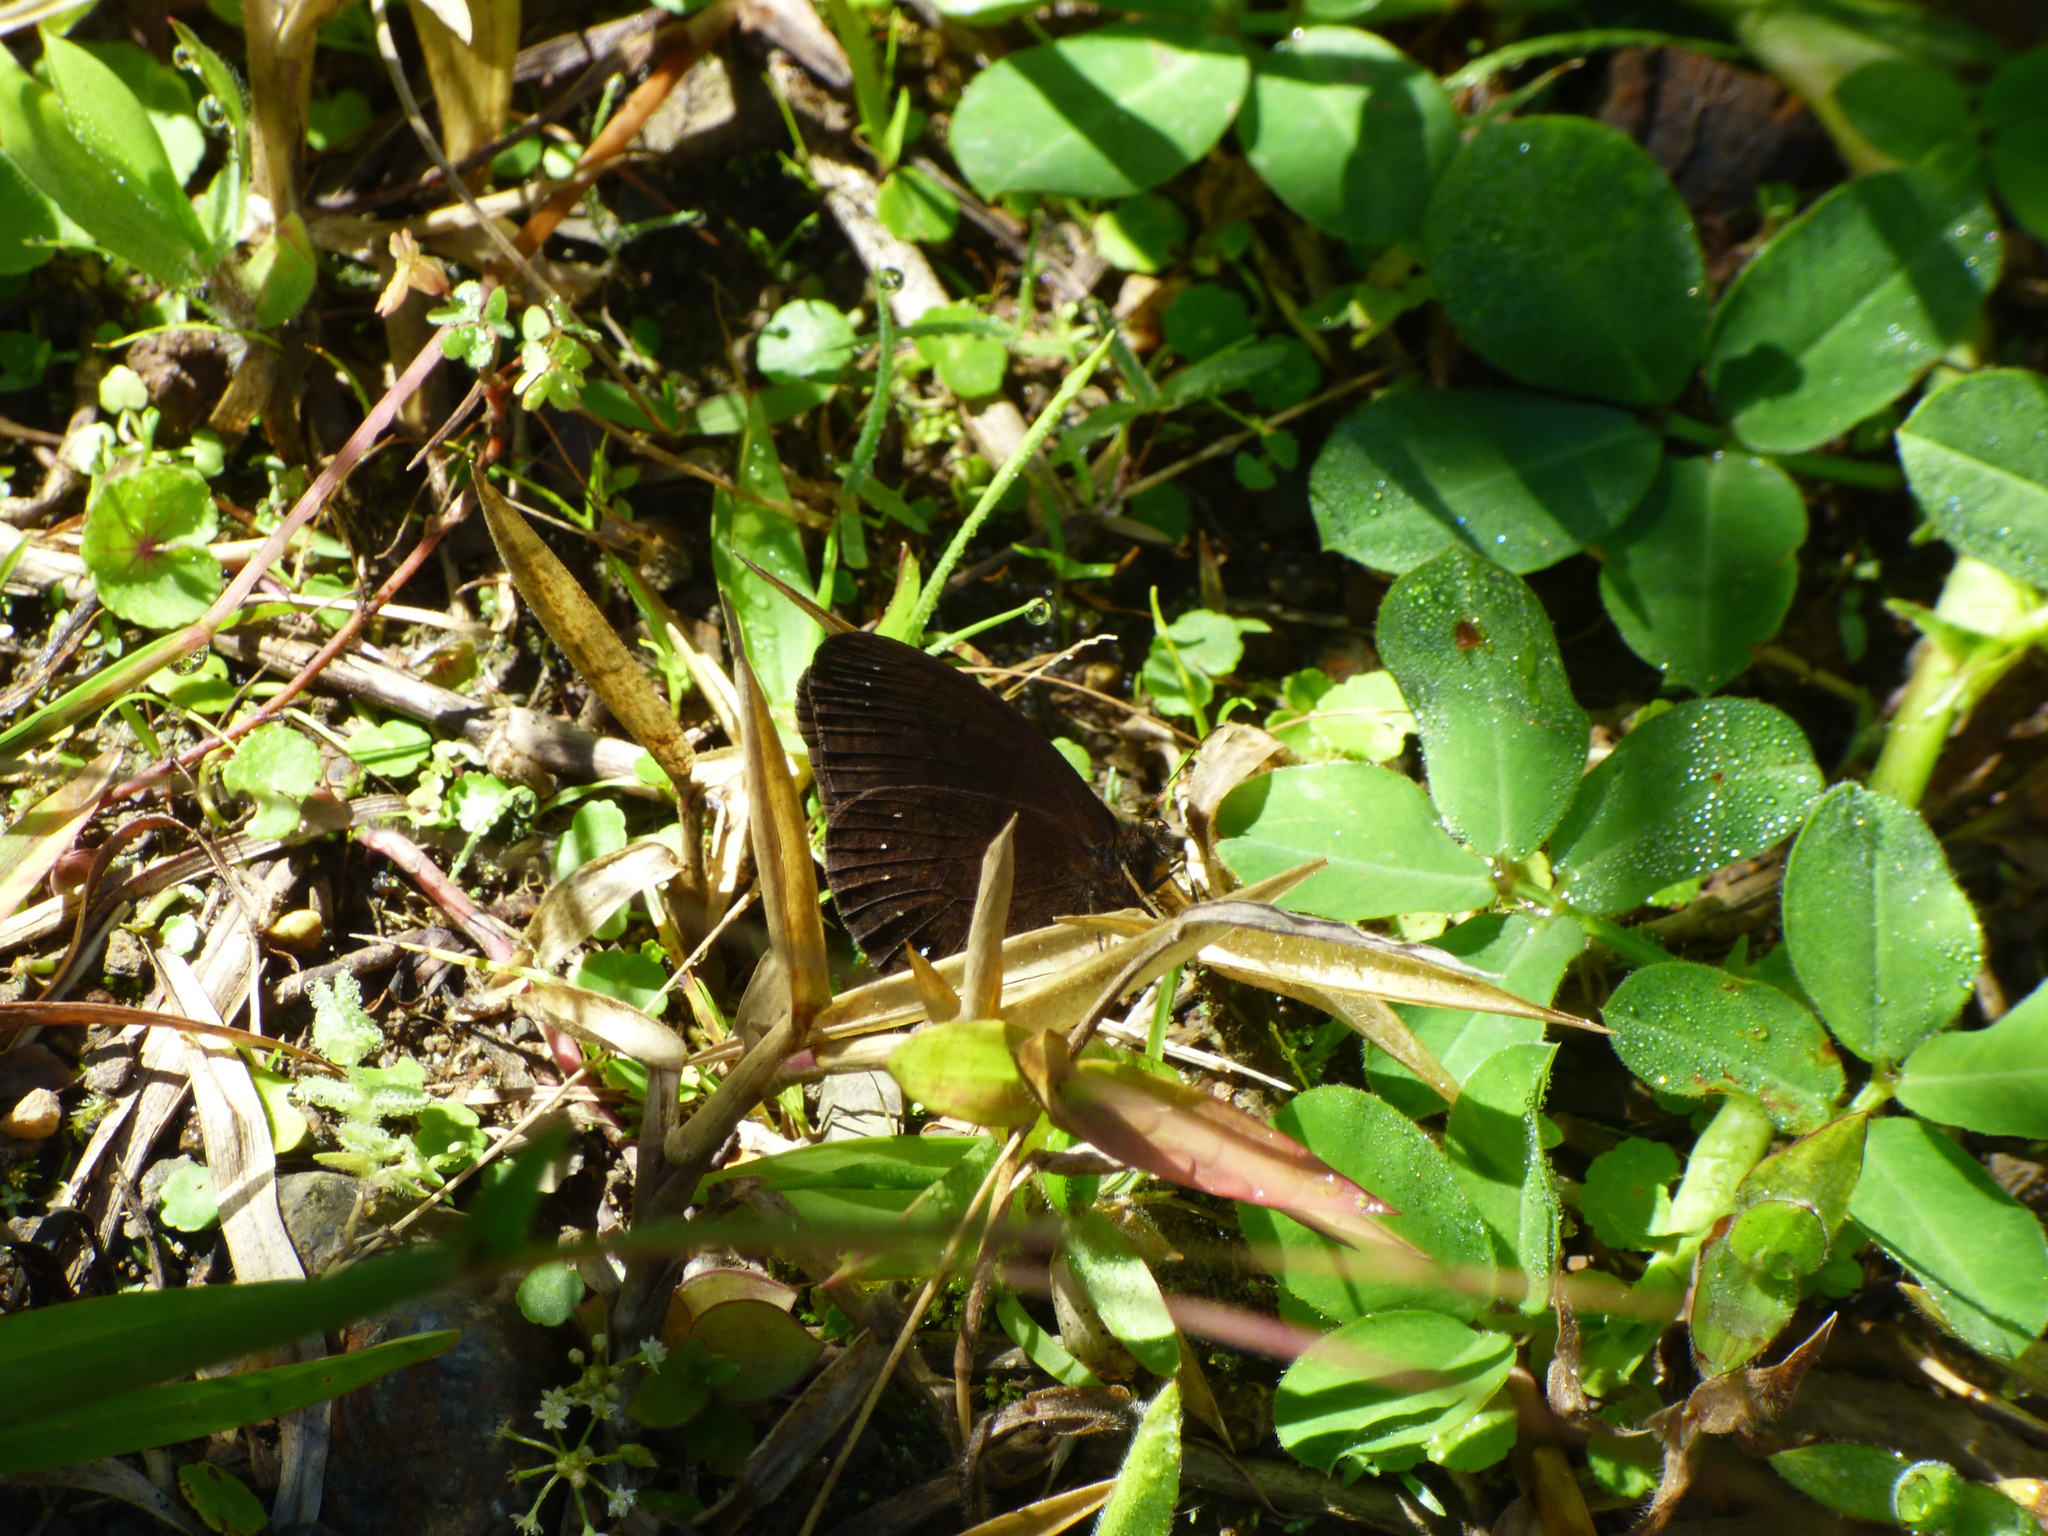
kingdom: Animalia
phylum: Arthropoda
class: Insecta
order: Lepidoptera
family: Nymphalidae
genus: Forsterinaria
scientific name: Forsterinaria neonympha
